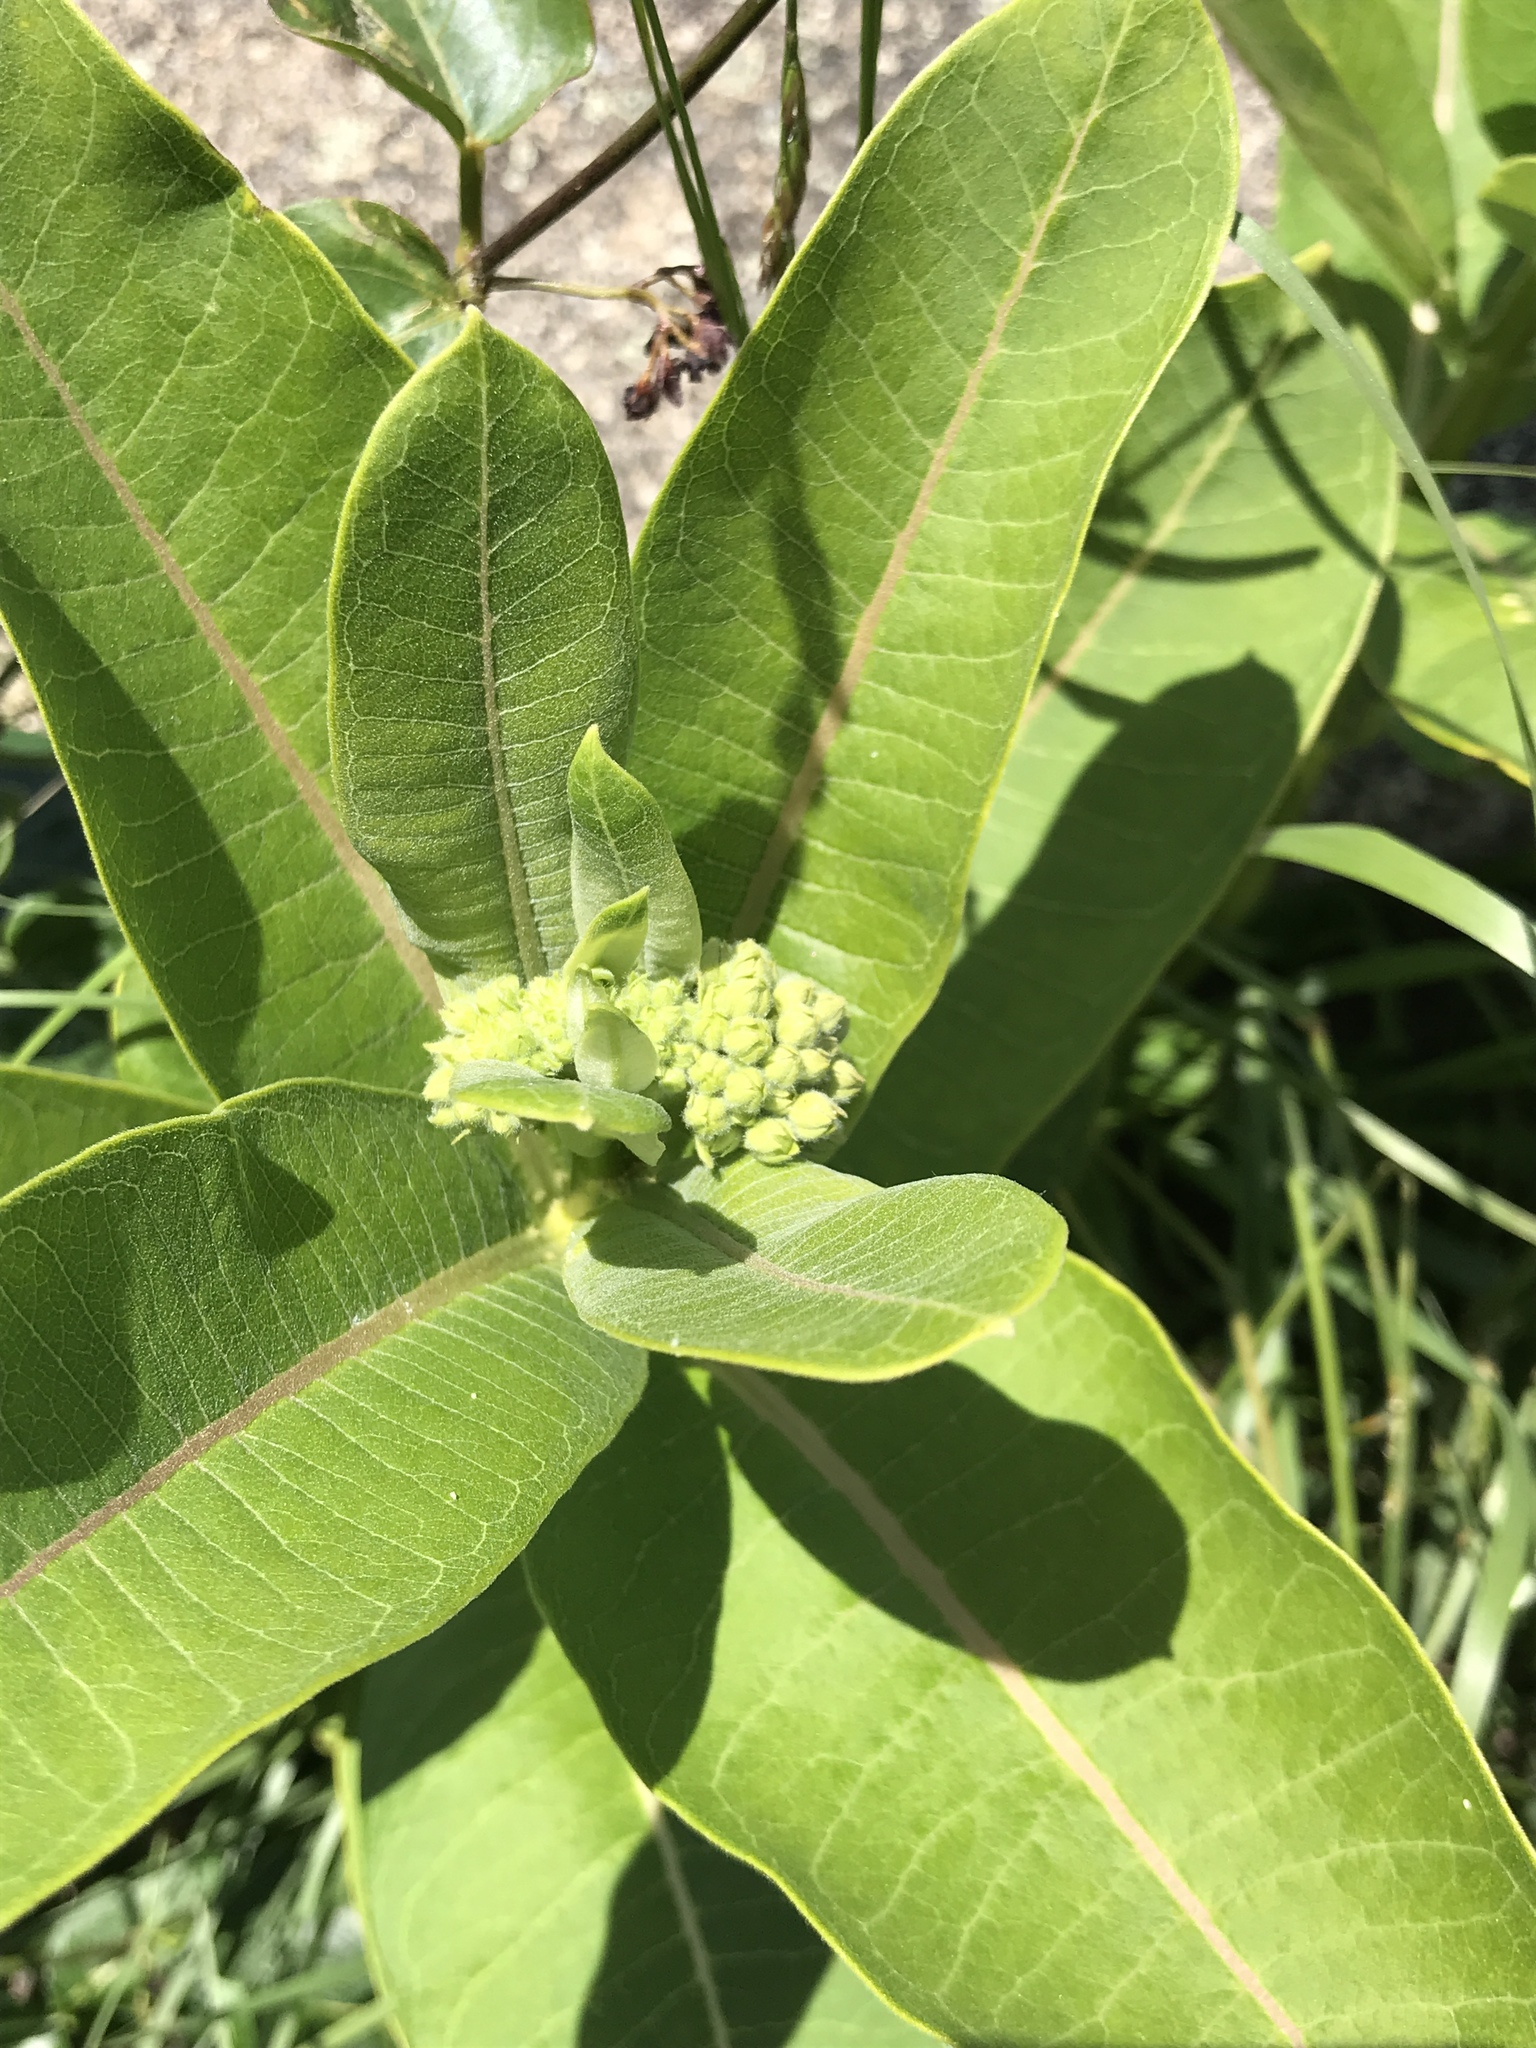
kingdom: Plantae
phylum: Tracheophyta
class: Magnoliopsida
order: Gentianales
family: Apocynaceae
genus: Asclepias
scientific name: Asclepias syriaca
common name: Common milkweed
